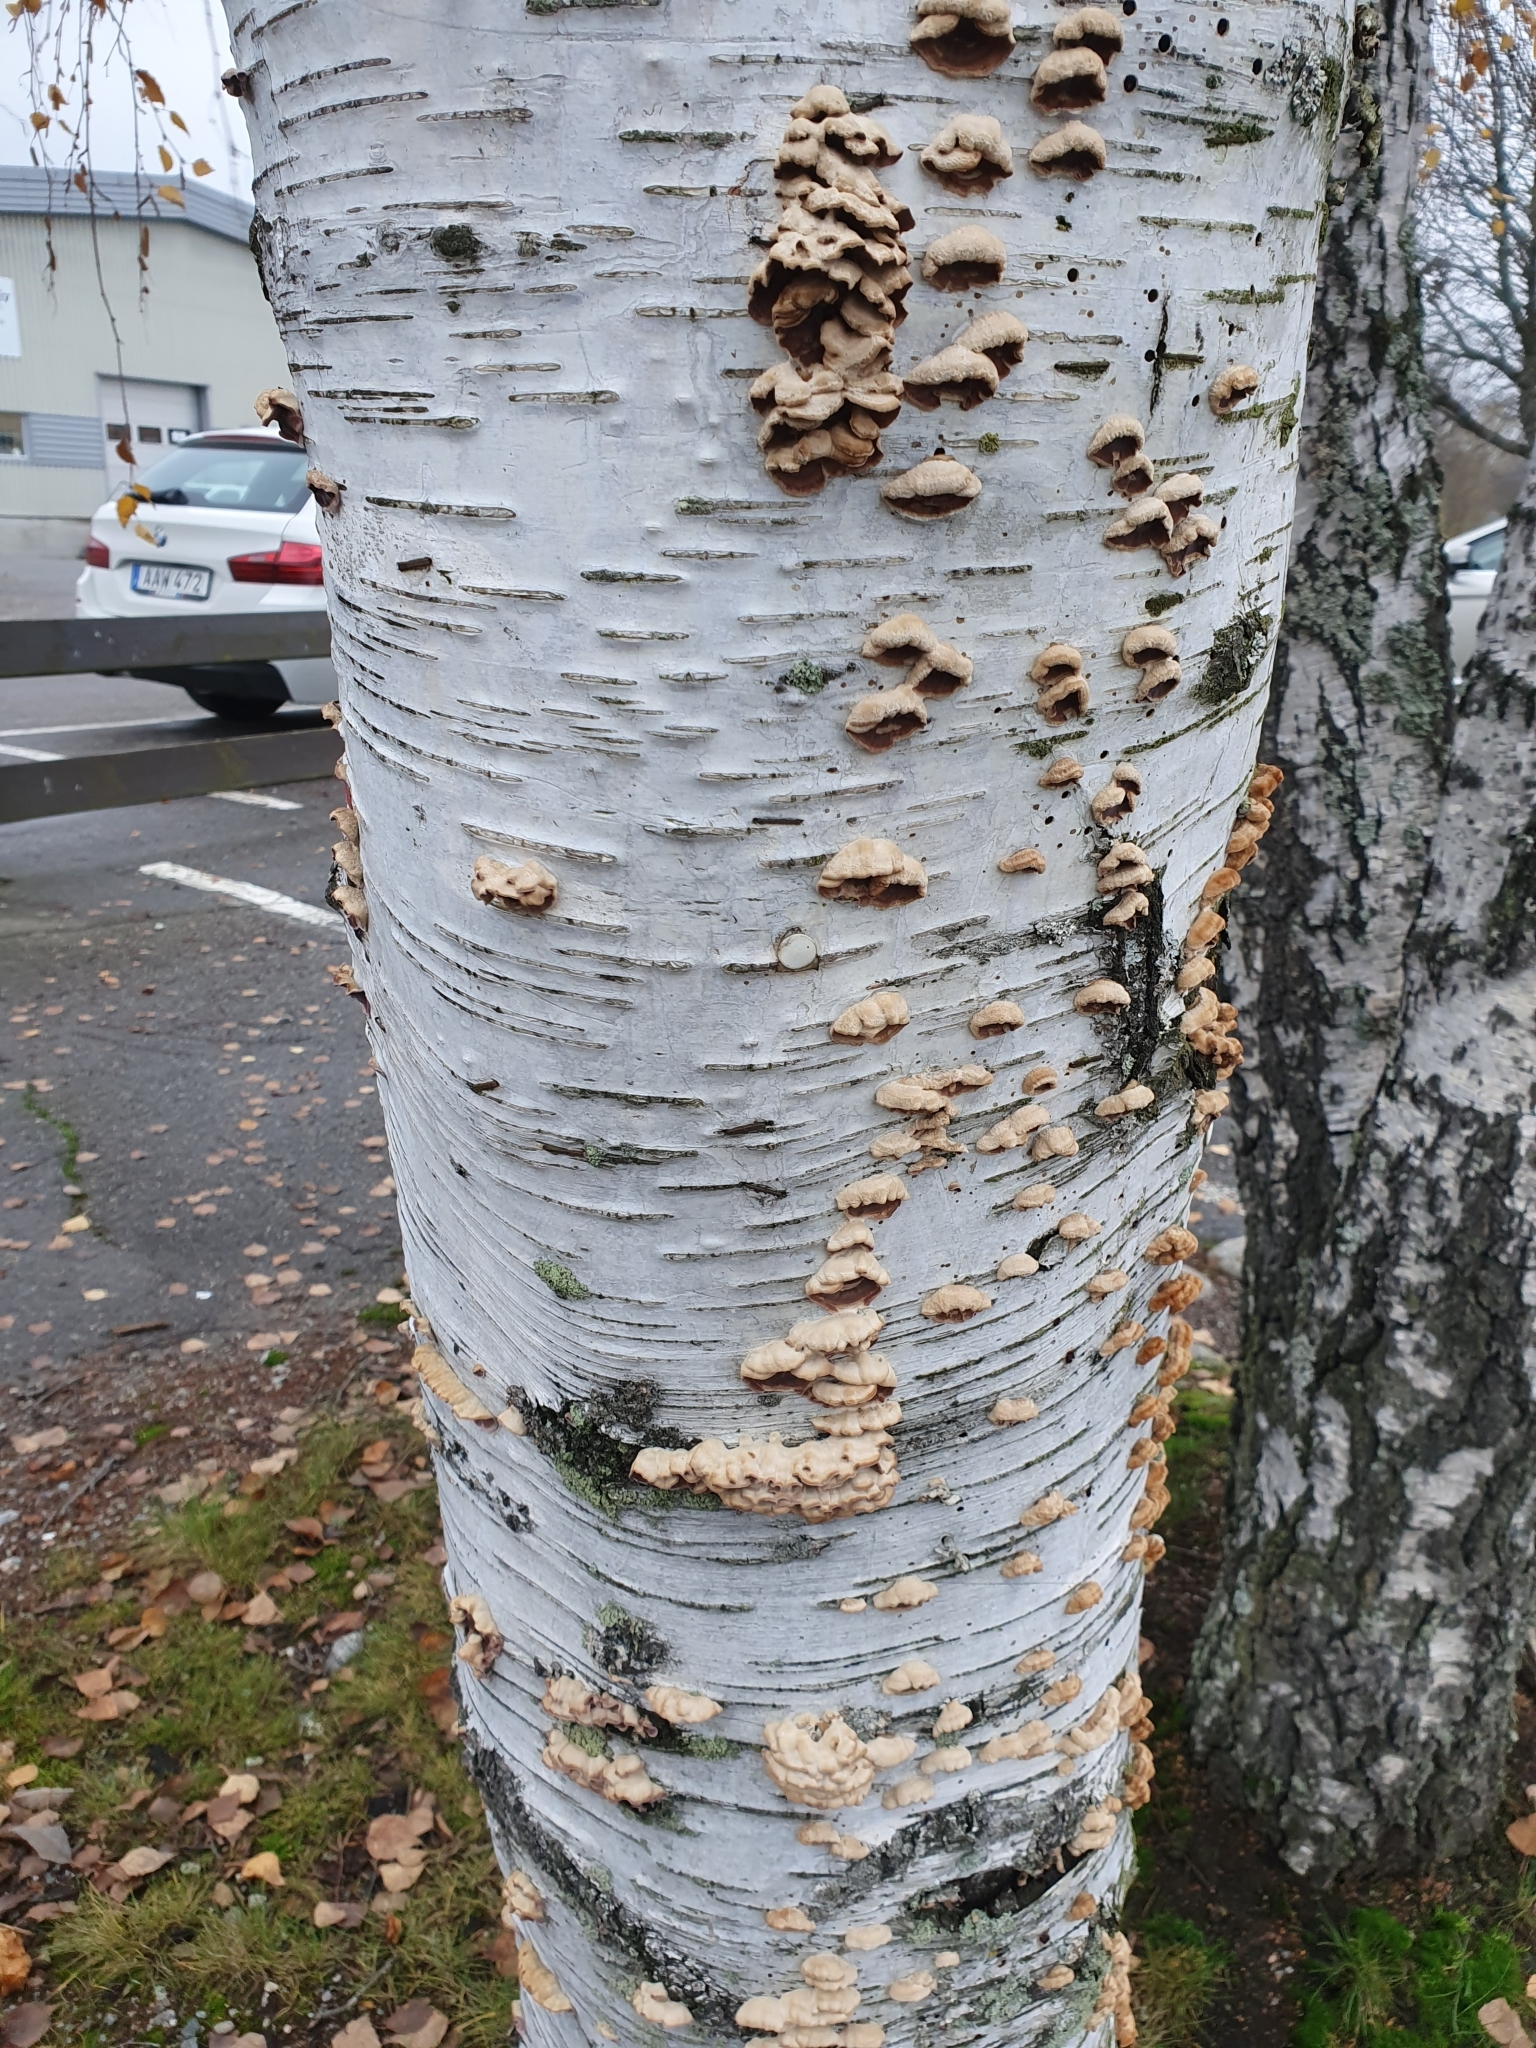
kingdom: Fungi
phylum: Basidiomycota
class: Agaricomycetes
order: Agaricales
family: Cyphellaceae
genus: Chondrostereum
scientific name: Chondrostereum purpureum
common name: Silver leaf disease
